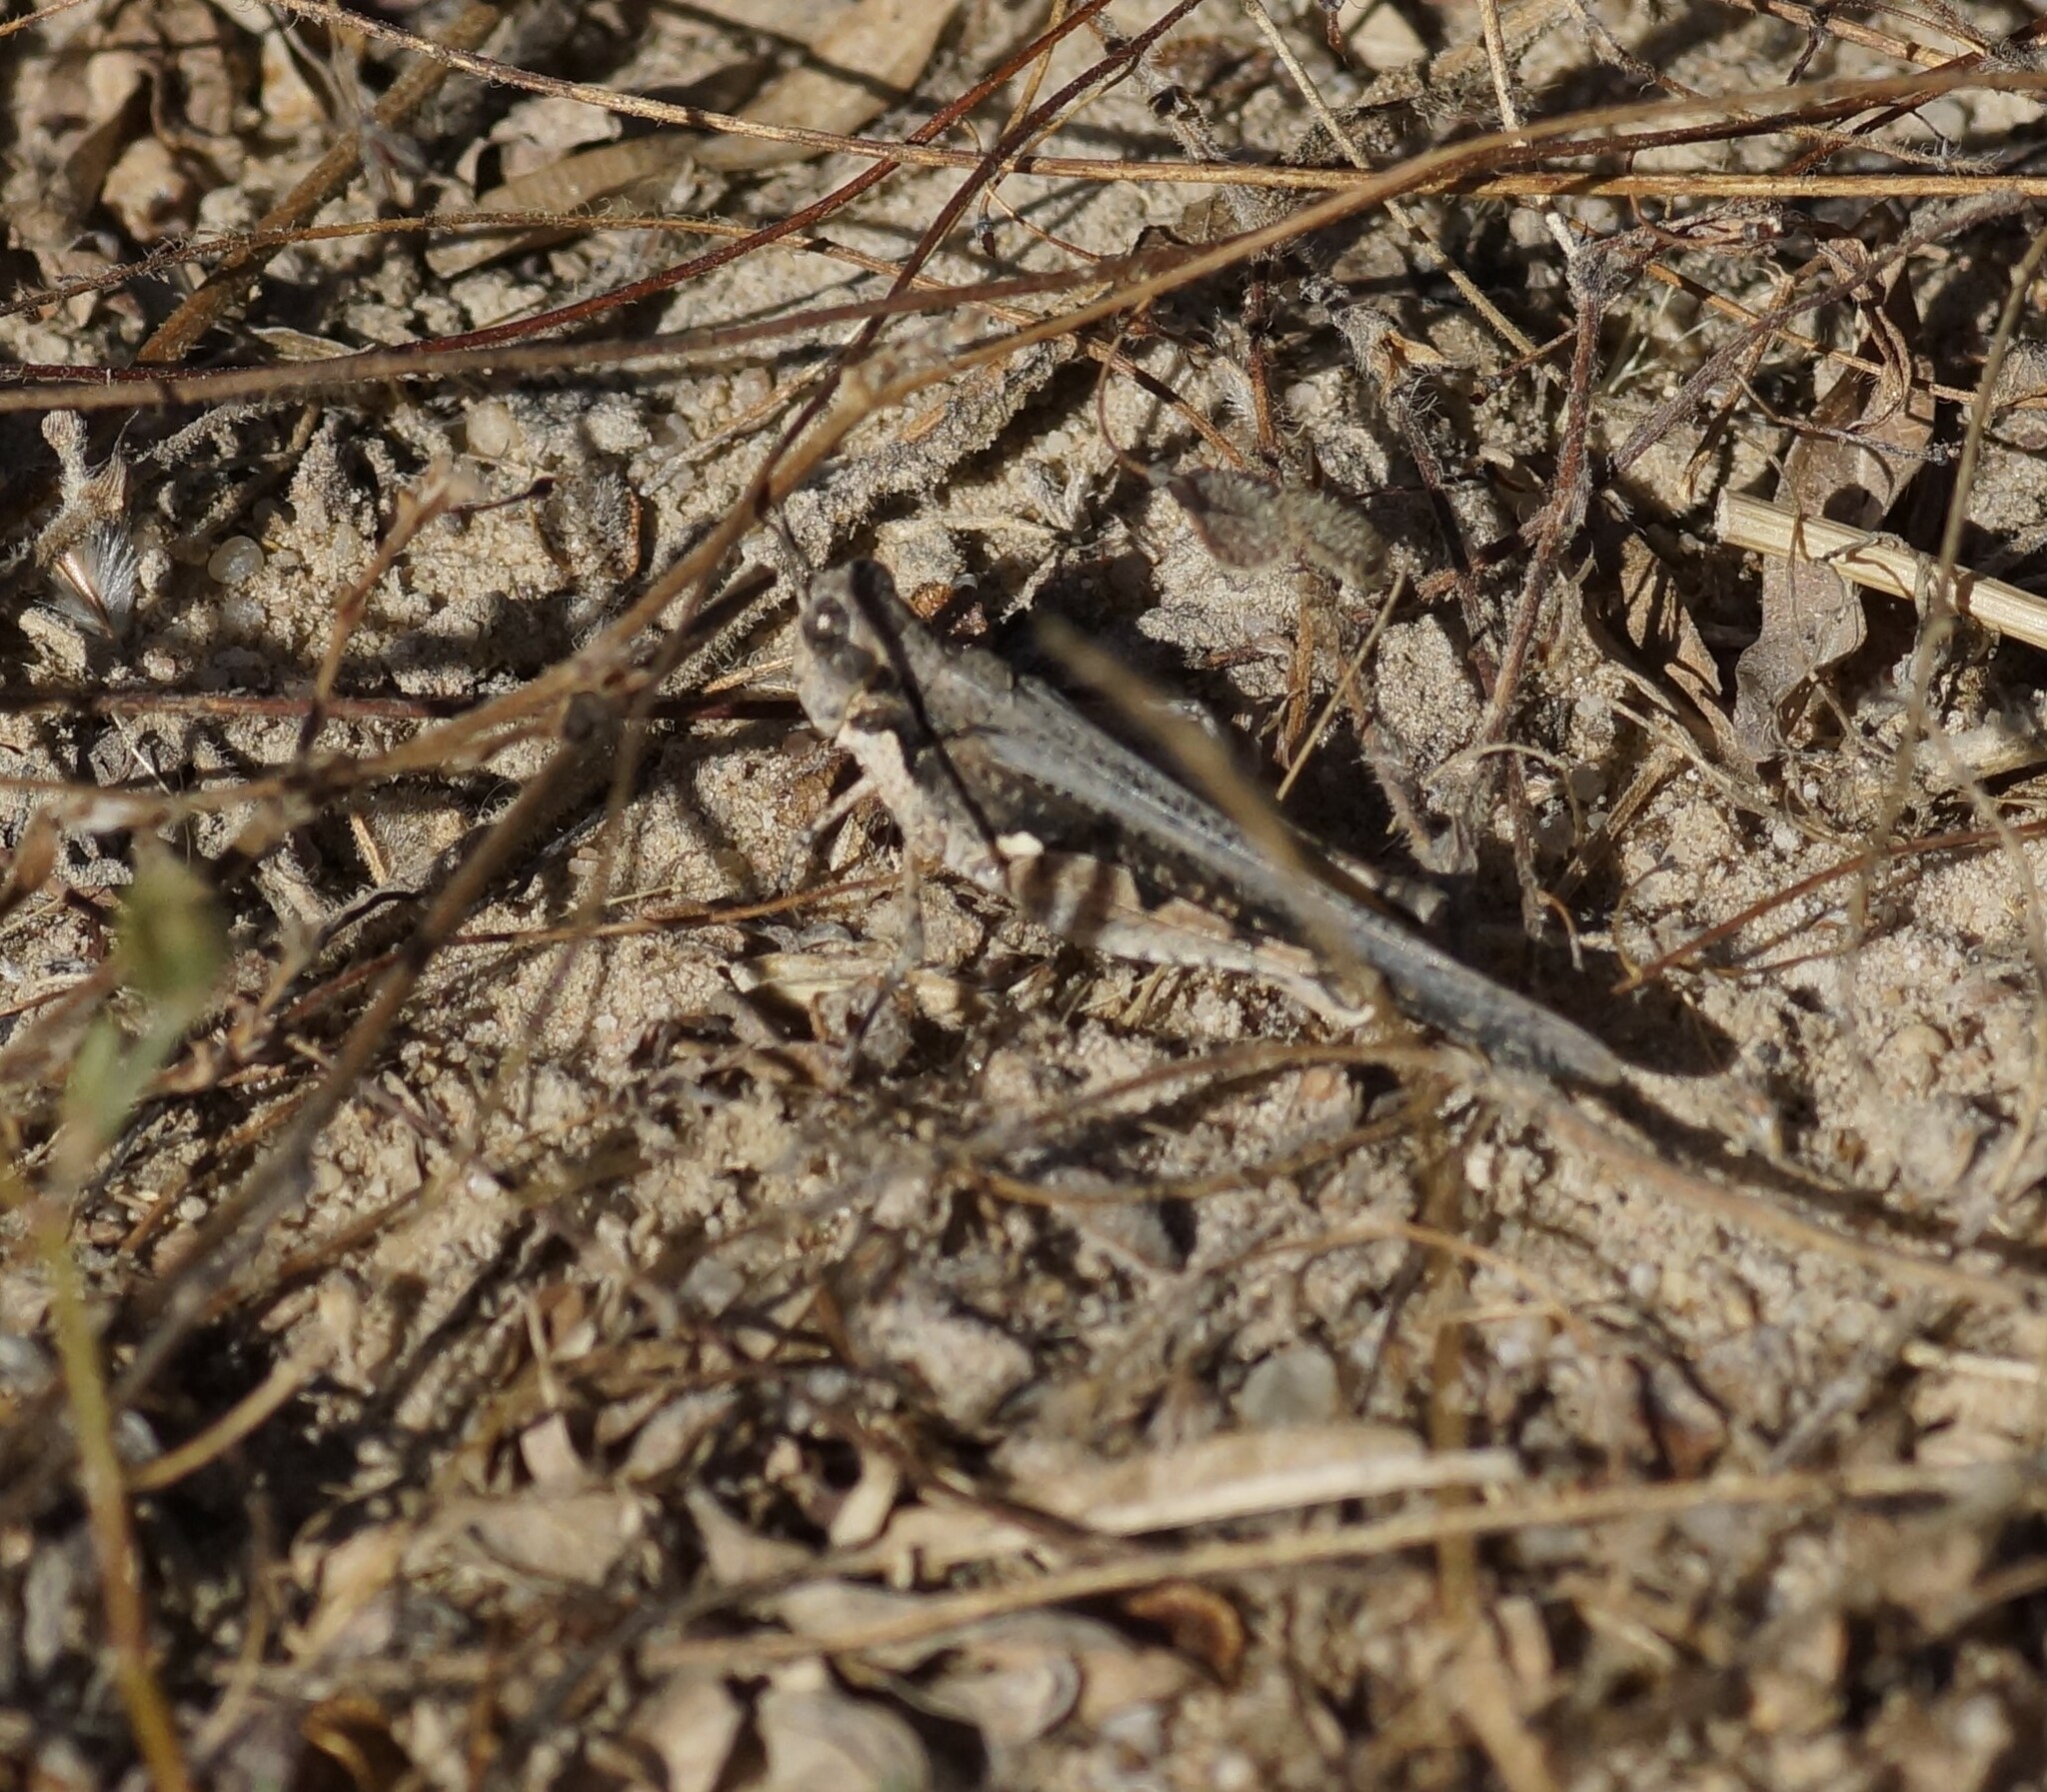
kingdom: Animalia
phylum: Arthropoda
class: Insecta
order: Orthoptera
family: Acrididae
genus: Pycnostictus
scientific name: Pycnostictus seriatus
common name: Common bandwing
